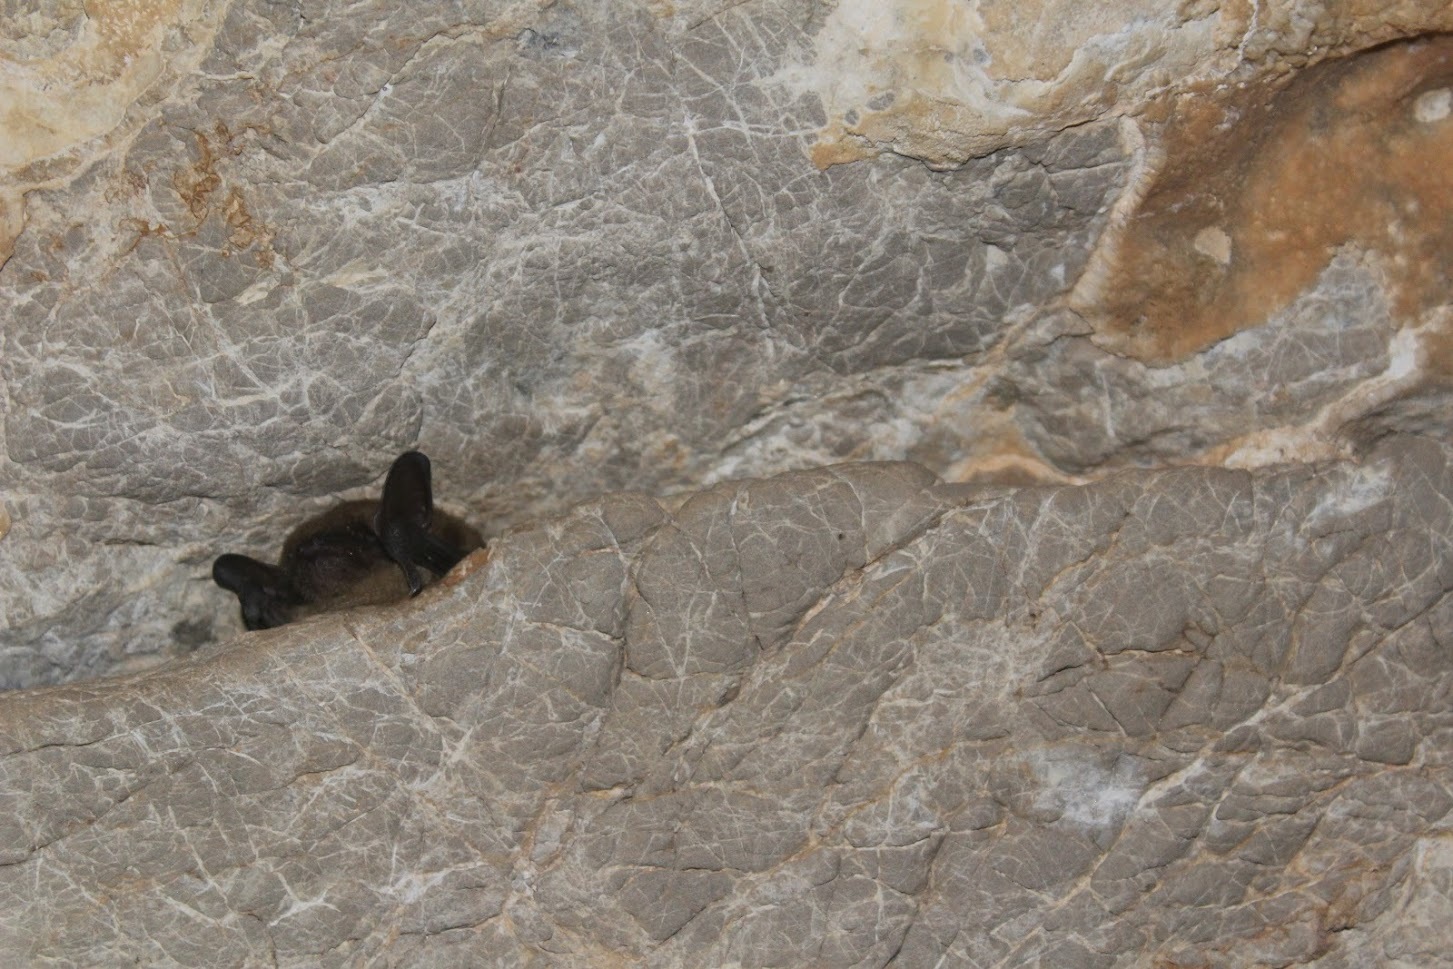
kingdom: Animalia
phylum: Chordata
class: Mammalia
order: Chiroptera
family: Vespertilionidae
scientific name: Vespertilionidae
